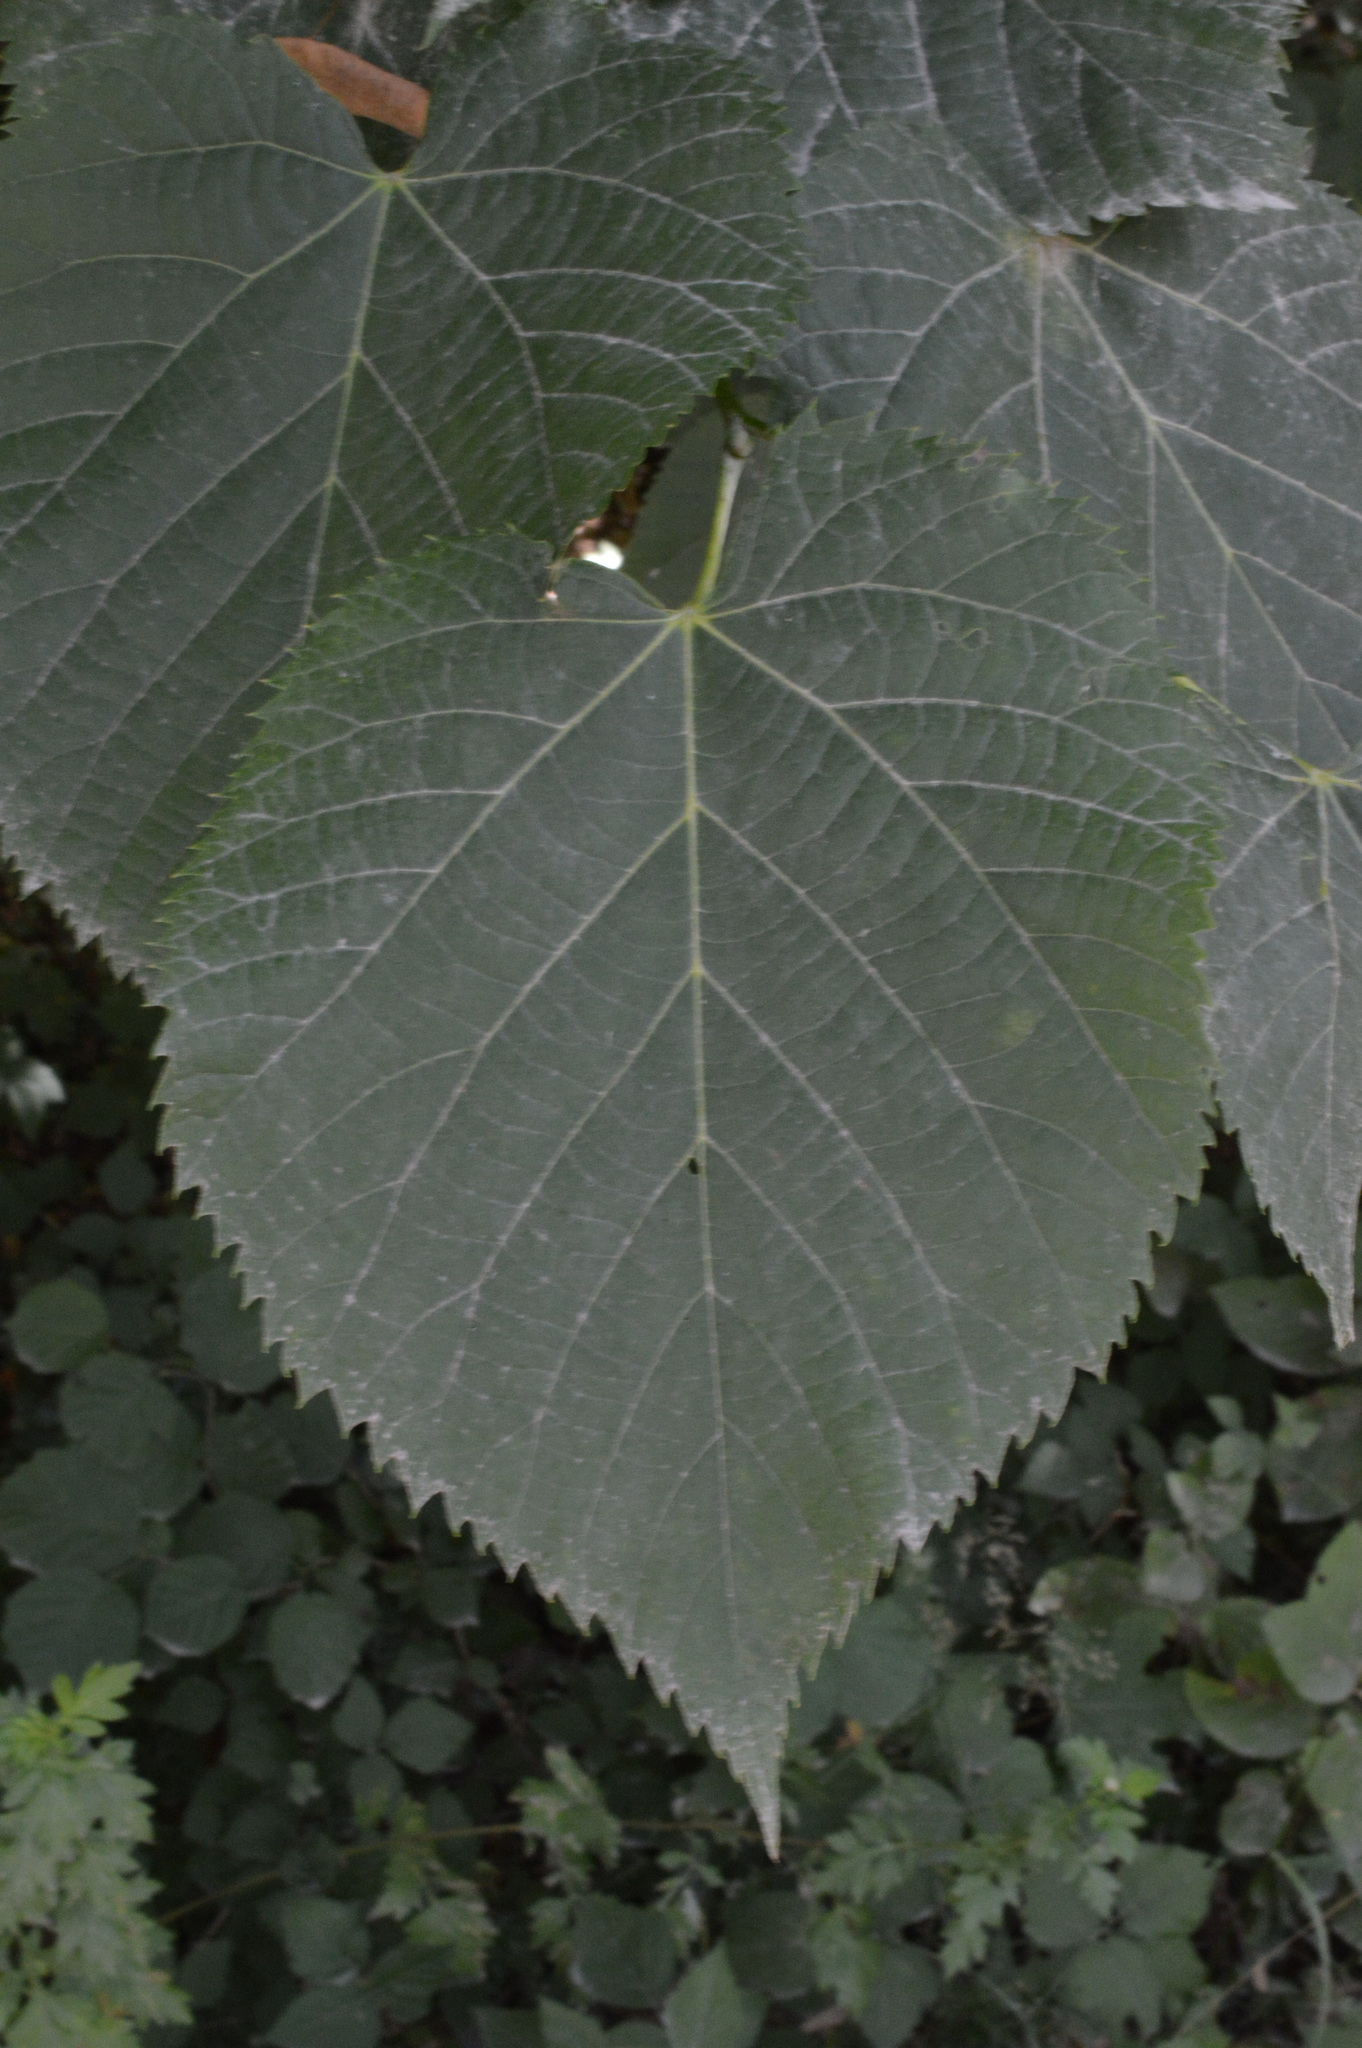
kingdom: Plantae
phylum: Tracheophyta
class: Magnoliopsida
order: Malvales
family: Malvaceae
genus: Tilia
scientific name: Tilia cordata
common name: Small-leaved lime
